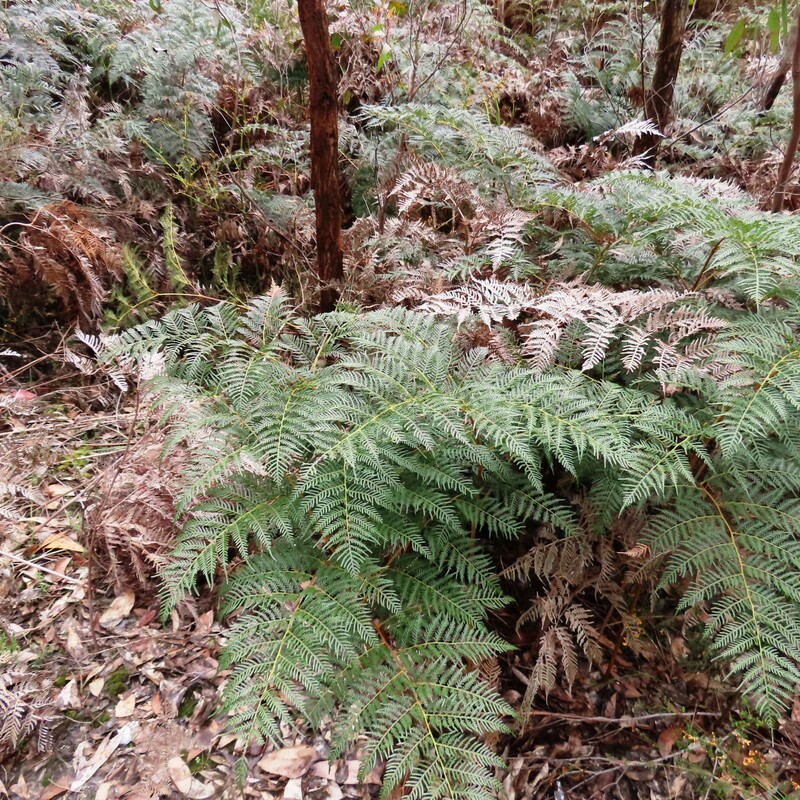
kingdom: Plantae
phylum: Tracheophyta
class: Polypodiopsida
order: Polypodiales
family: Dennstaedtiaceae
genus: Pteridium
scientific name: Pteridium esculentum
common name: Bracken fern
